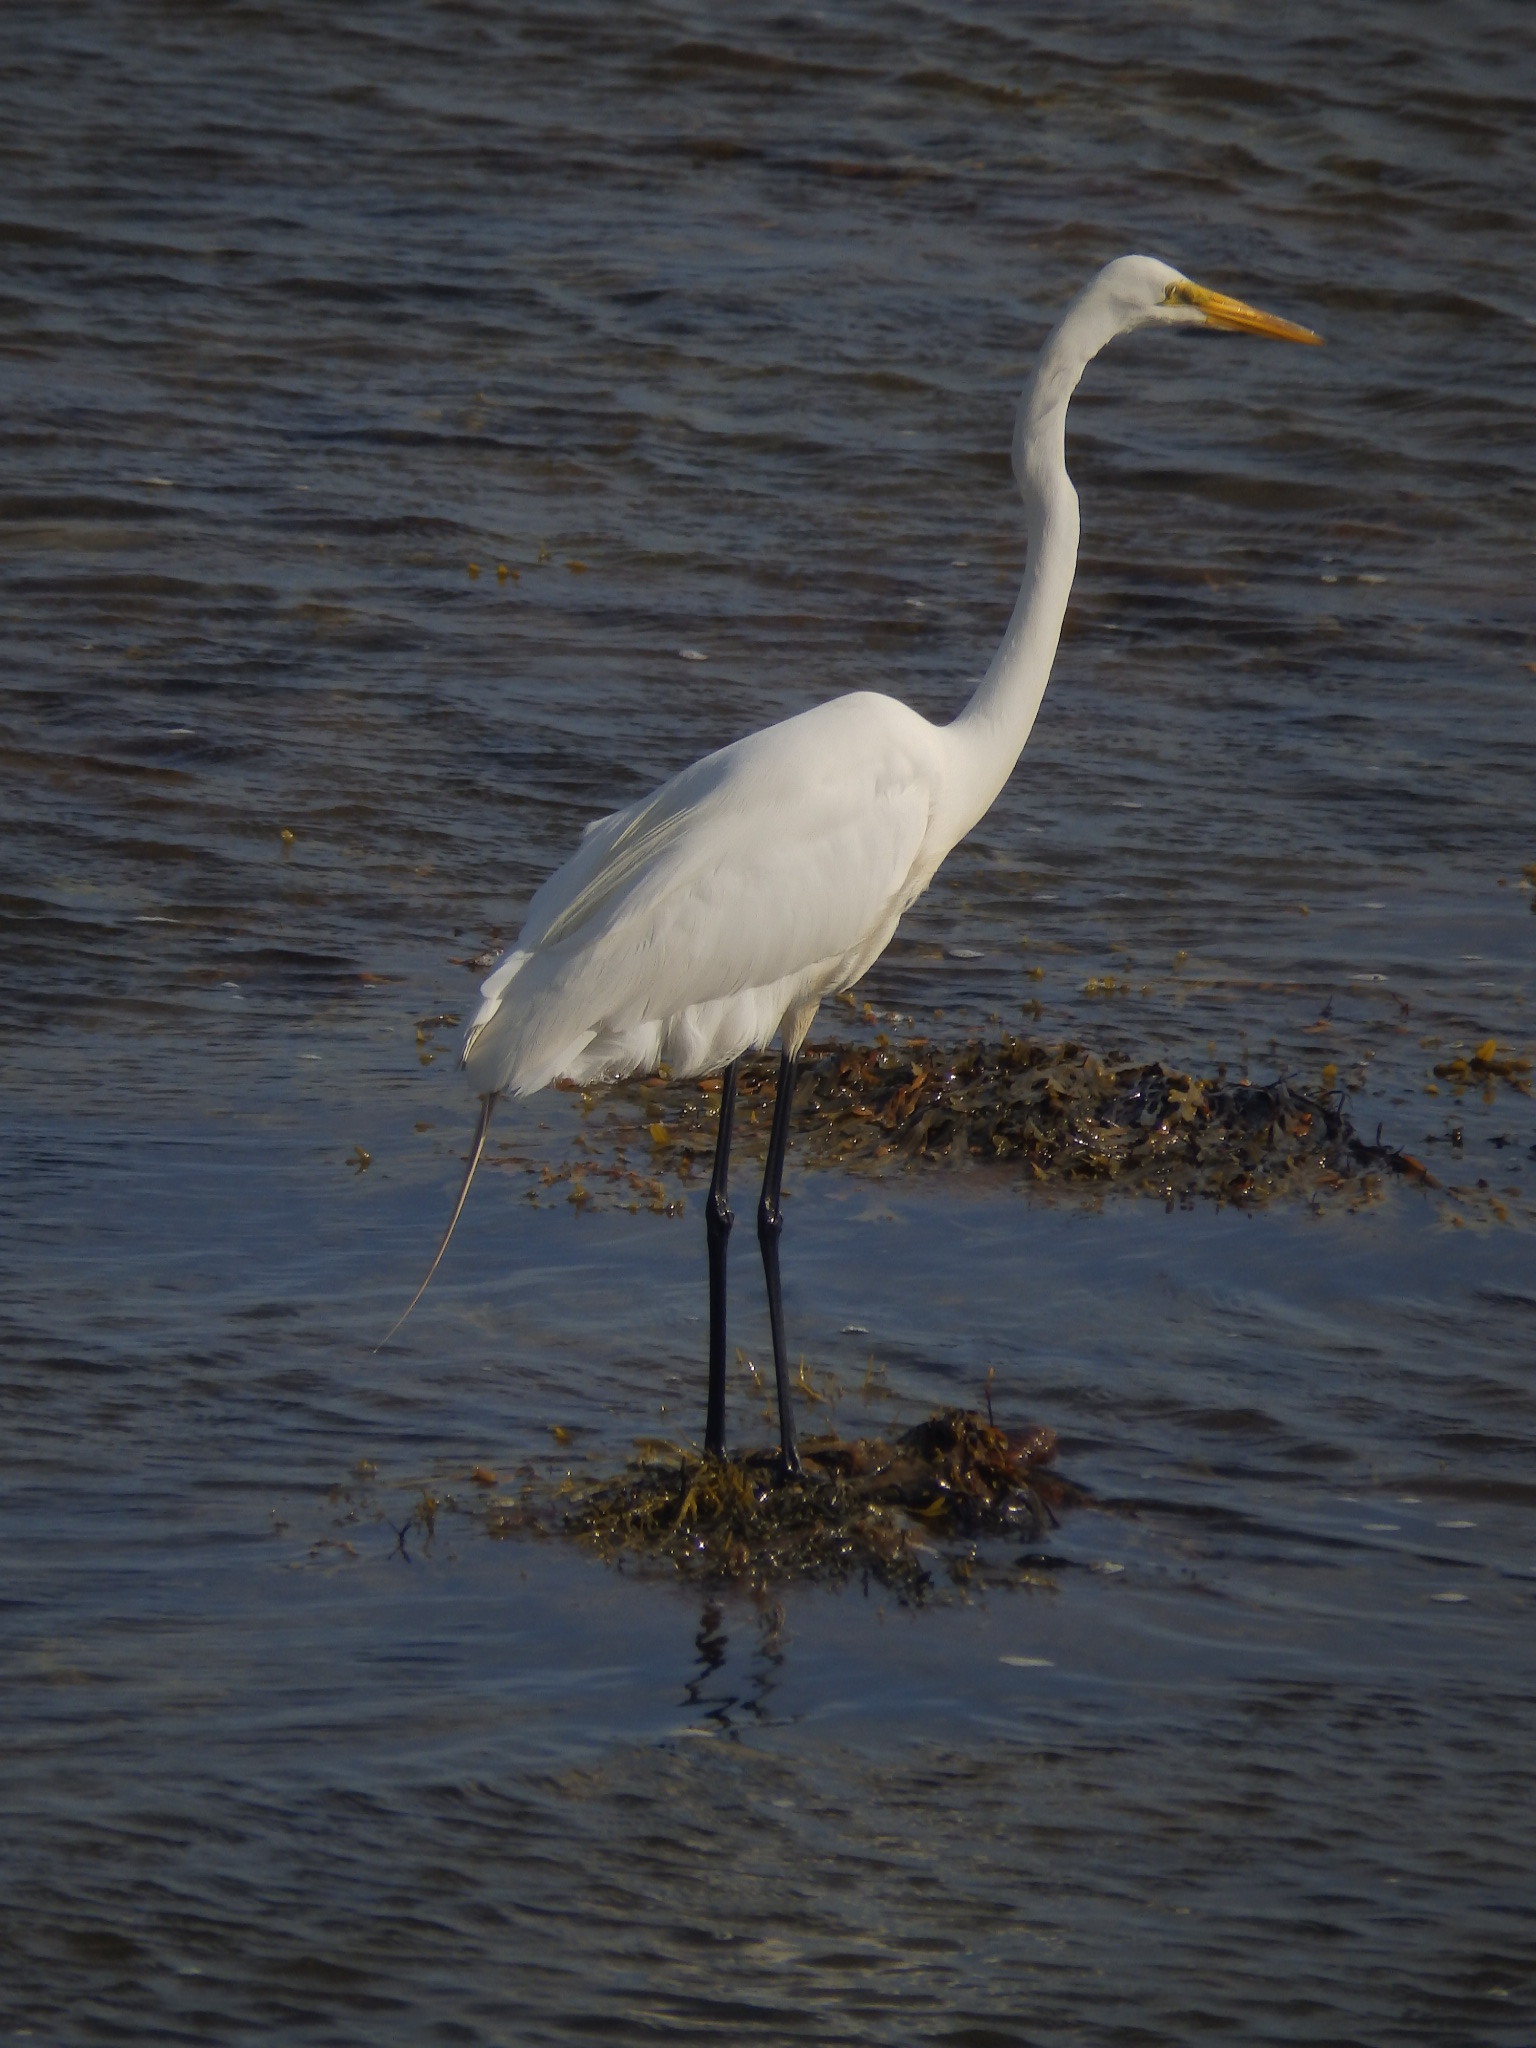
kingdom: Animalia
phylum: Chordata
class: Aves
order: Pelecaniformes
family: Ardeidae
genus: Ardea
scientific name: Ardea alba
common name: Great egret
